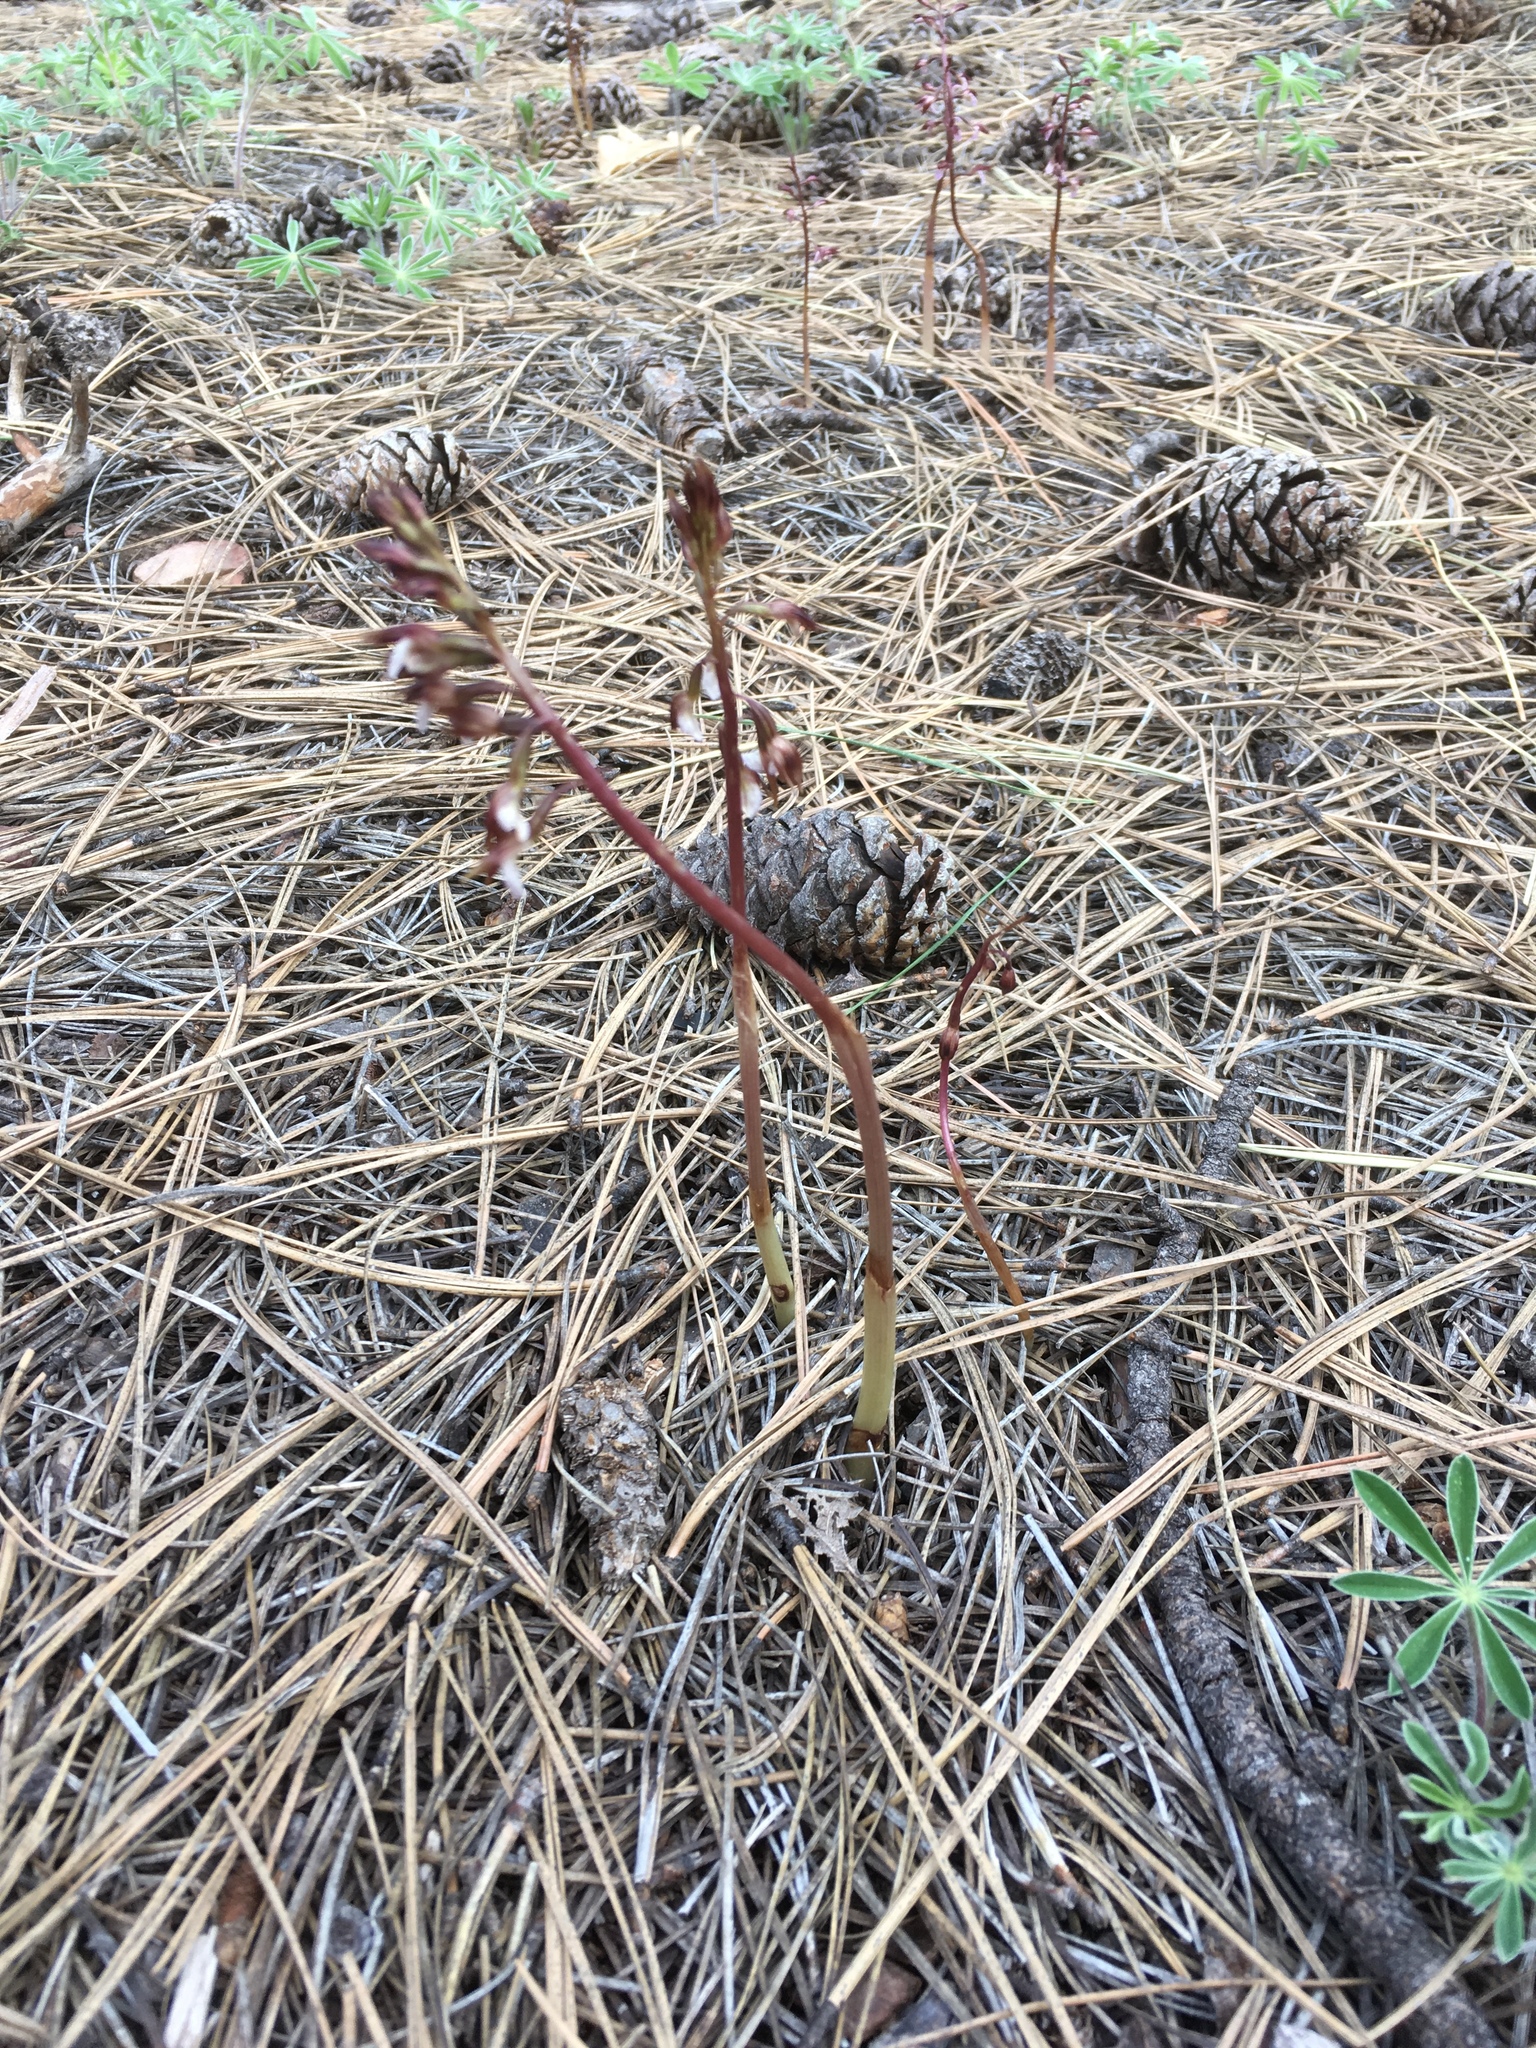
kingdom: Plantae
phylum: Tracheophyta
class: Liliopsida
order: Asparagales
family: Orchidaceae
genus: Corallorhiza
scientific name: Corallorhiza wisteriana
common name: Spring coralroot
